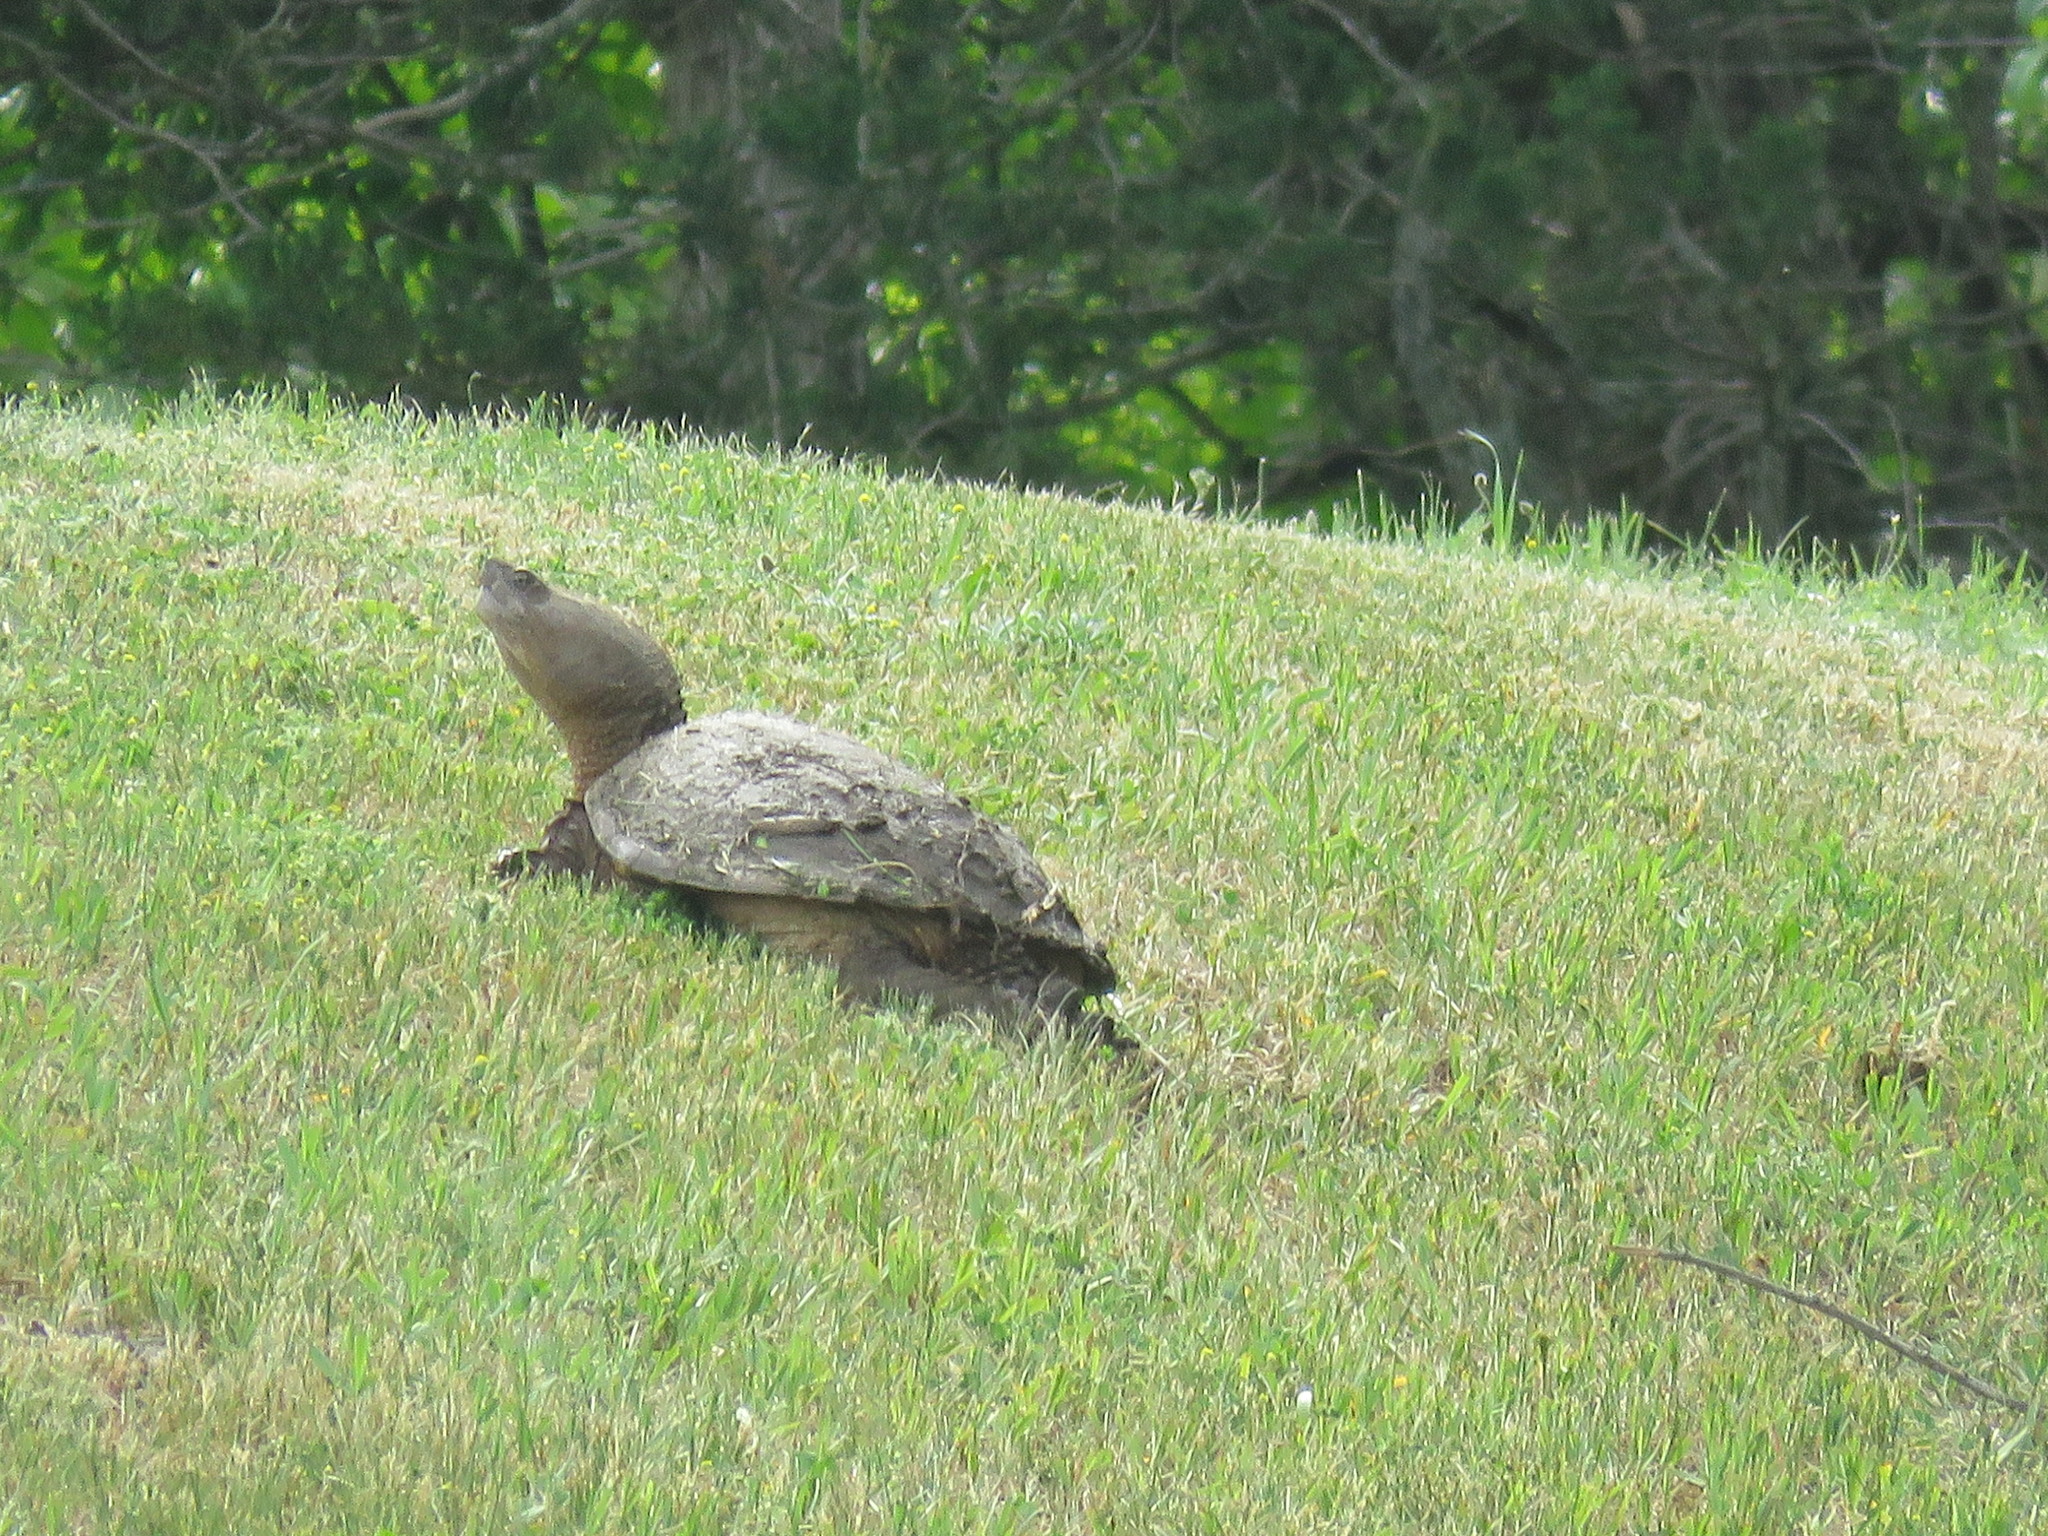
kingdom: Animalia
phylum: Chordata
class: Testudines
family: Chelydridae
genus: Chelydra
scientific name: Chelydra serpentina
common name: Common snapping turtle
